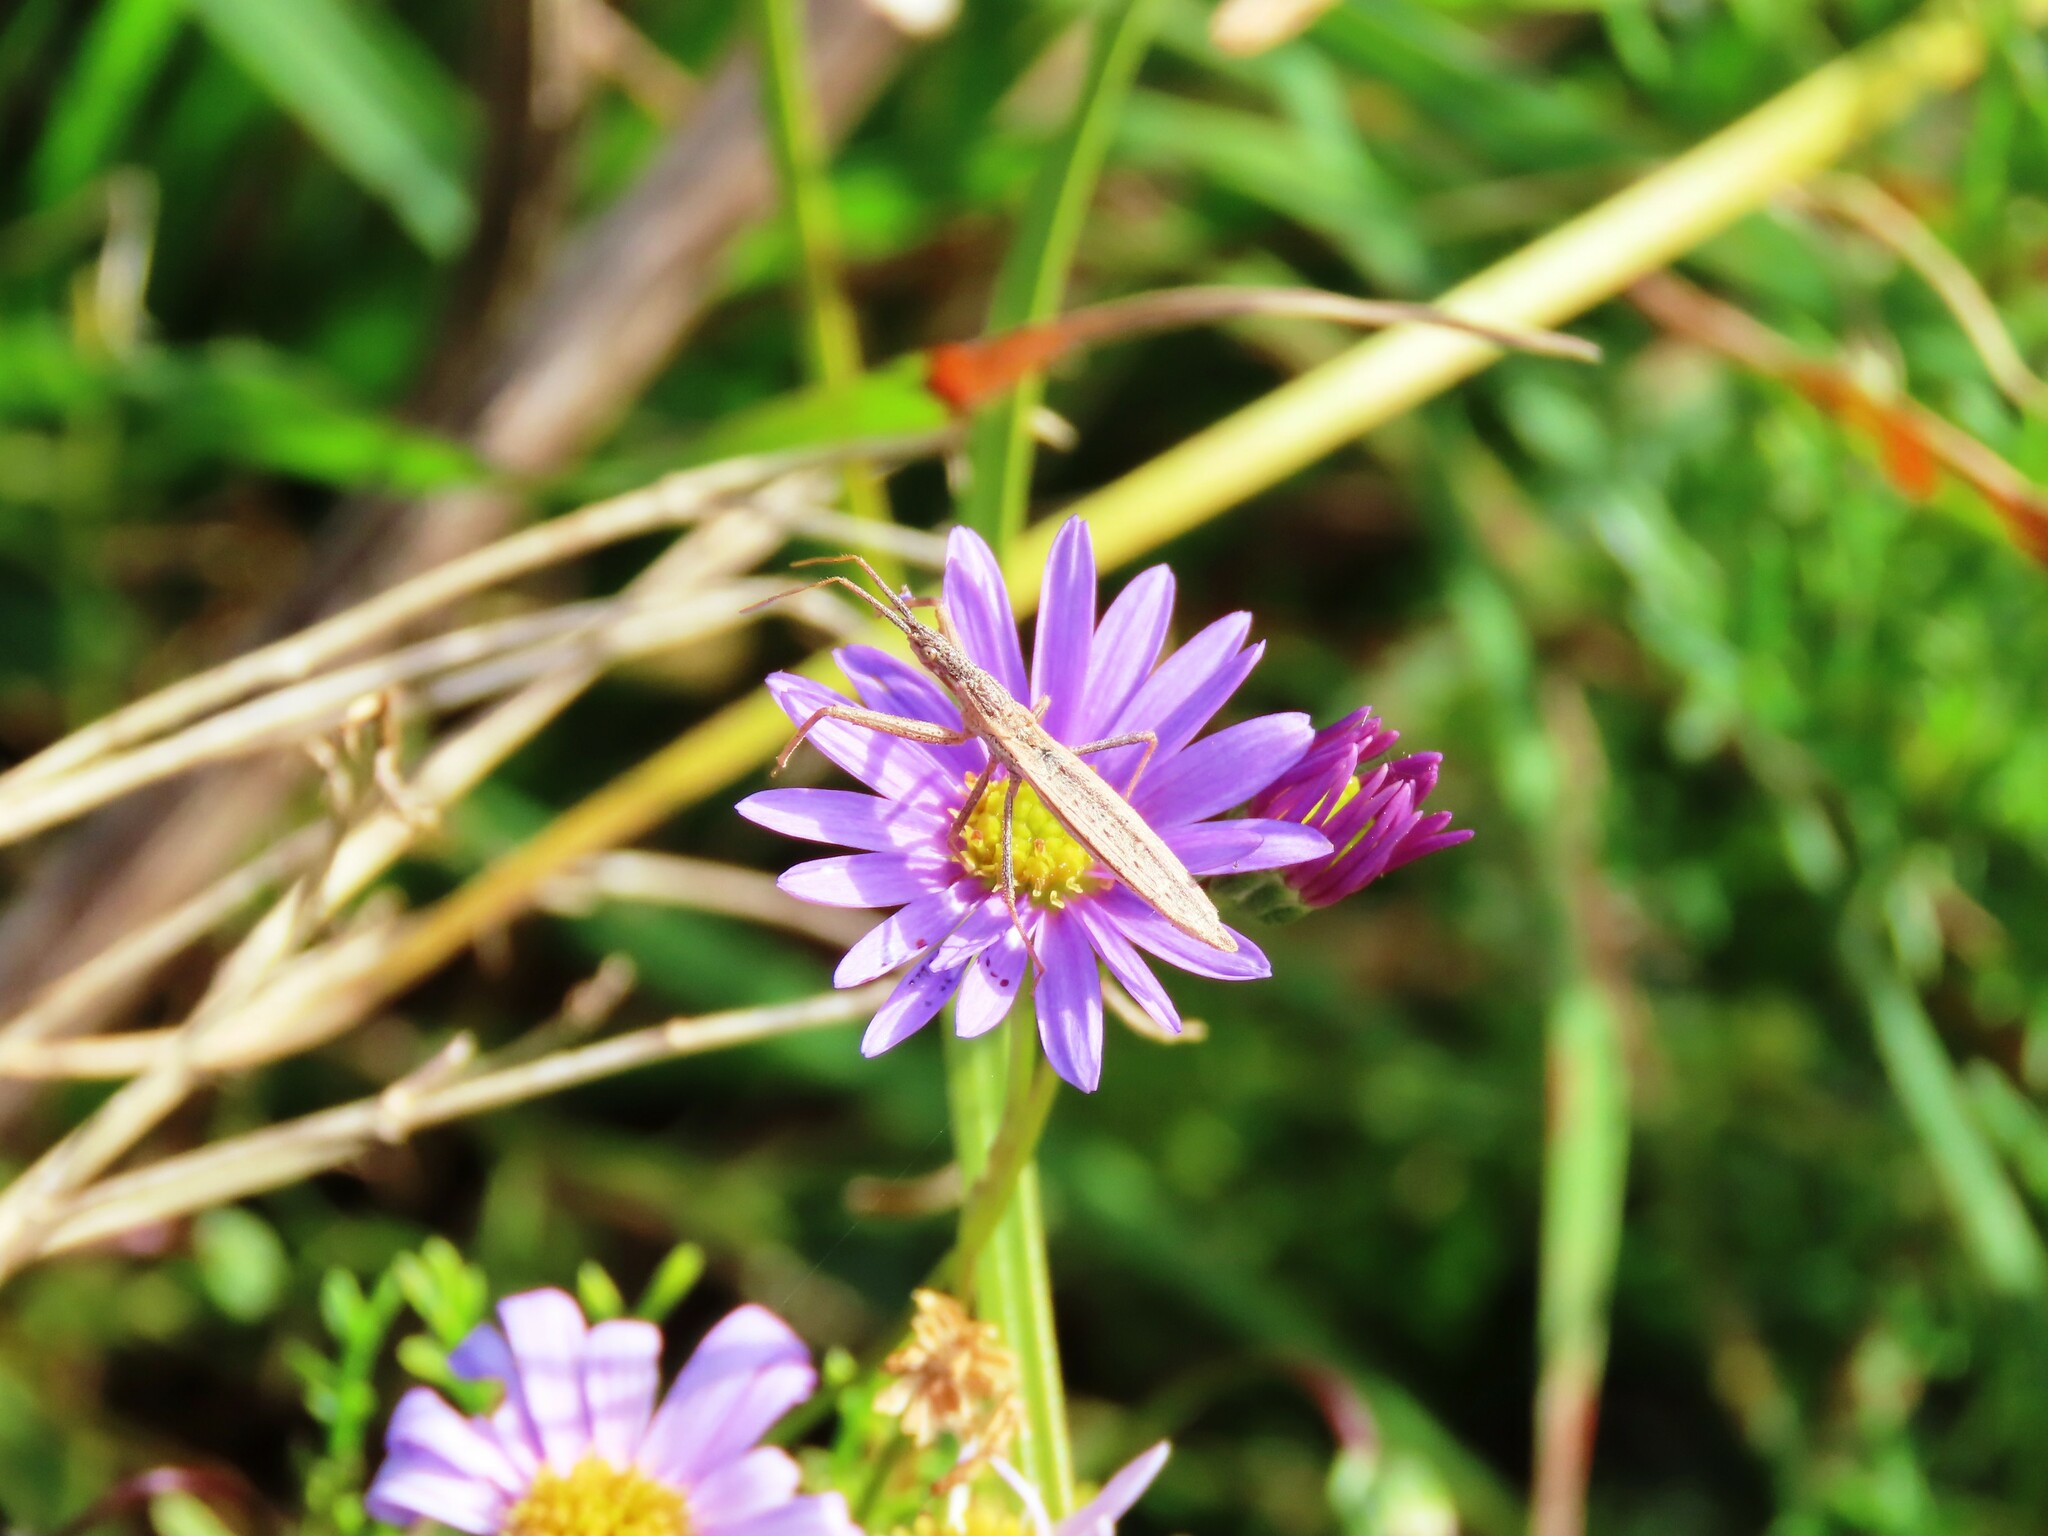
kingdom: Animalia
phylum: Arthropoda
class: Insecta
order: Hemiptera
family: Reduviidae
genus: Dicrotelus
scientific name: Dicrotelus prolixus
